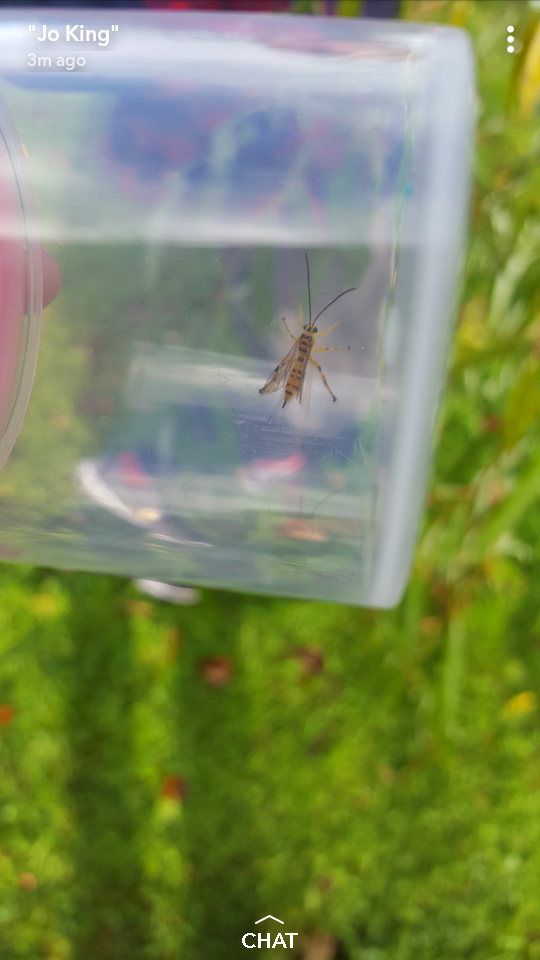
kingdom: Animalia
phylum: Arthropoda
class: Insecta
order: Hymenoptera
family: Ichneumonidae
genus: Xanthopimpla
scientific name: Xanthopimpla rhopaloceros
